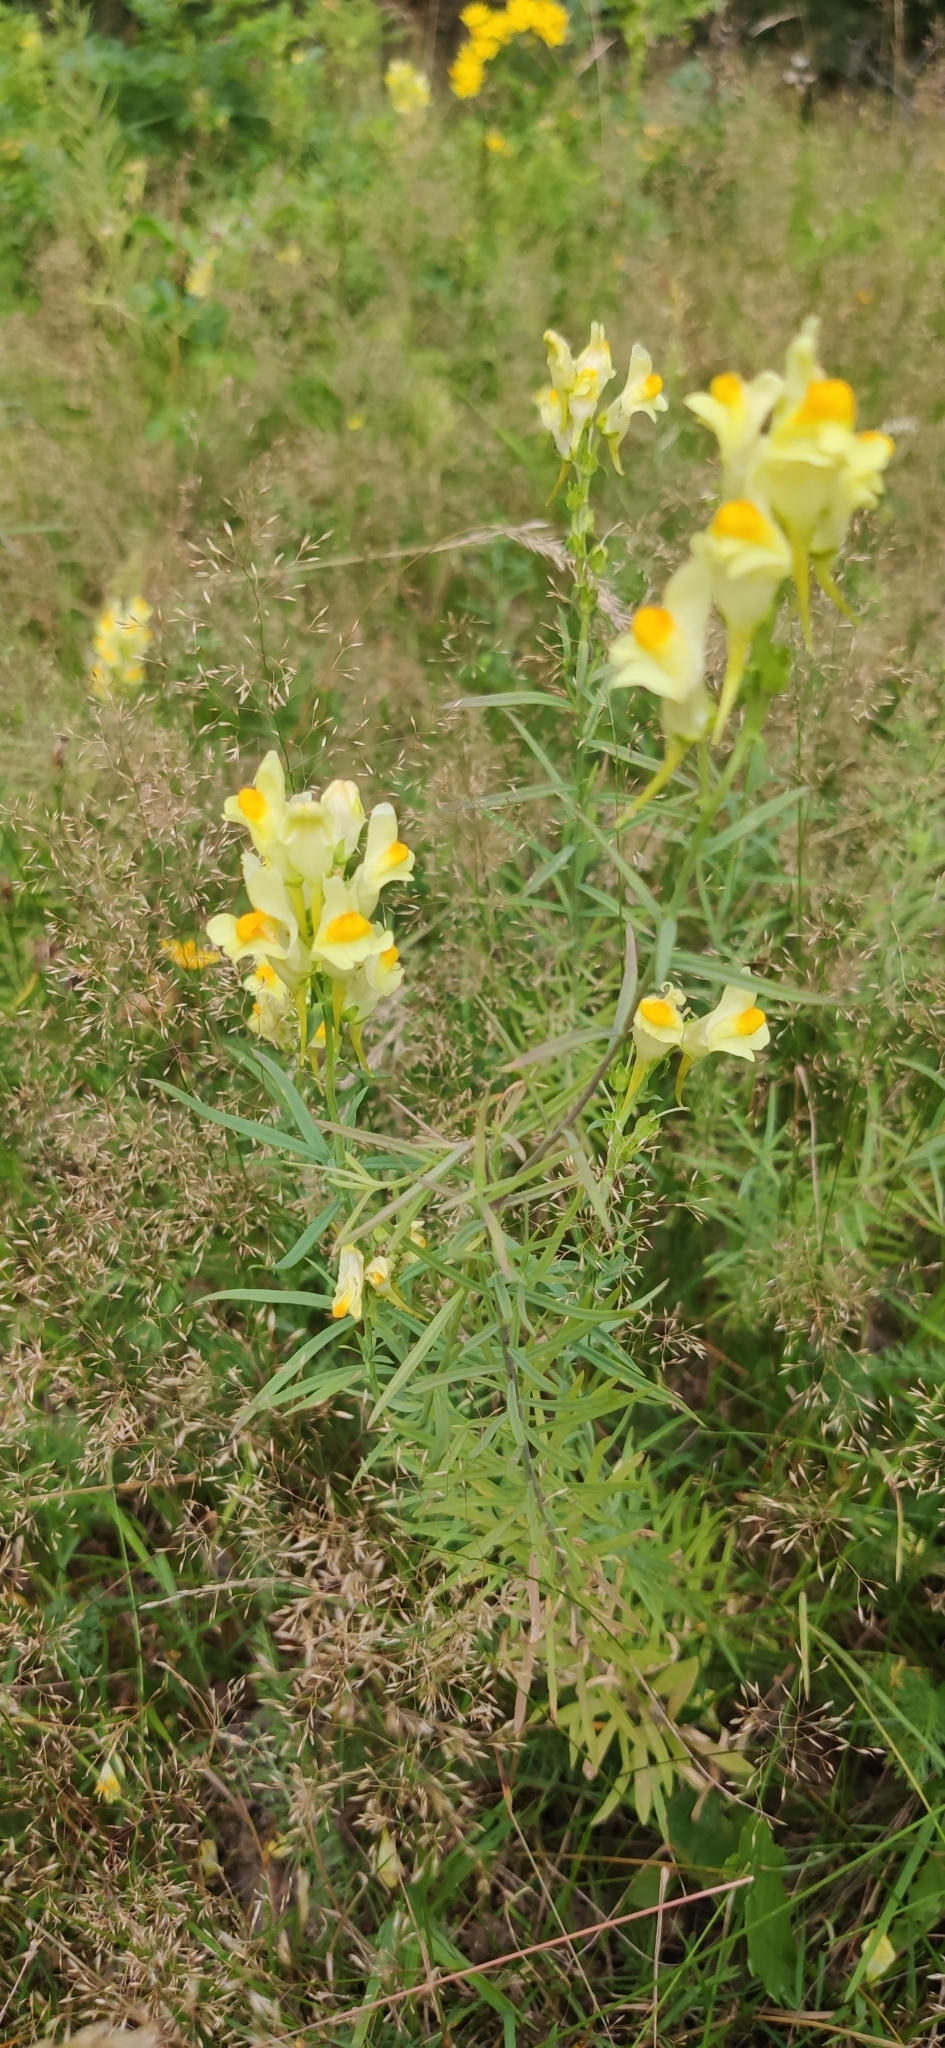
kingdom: Plantae
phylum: Tracheophyta
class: Magnoliopsida
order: Lamiales
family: Plantaginaceae
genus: Linaria
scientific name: Linaria vulgaris
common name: Butter and eggs
